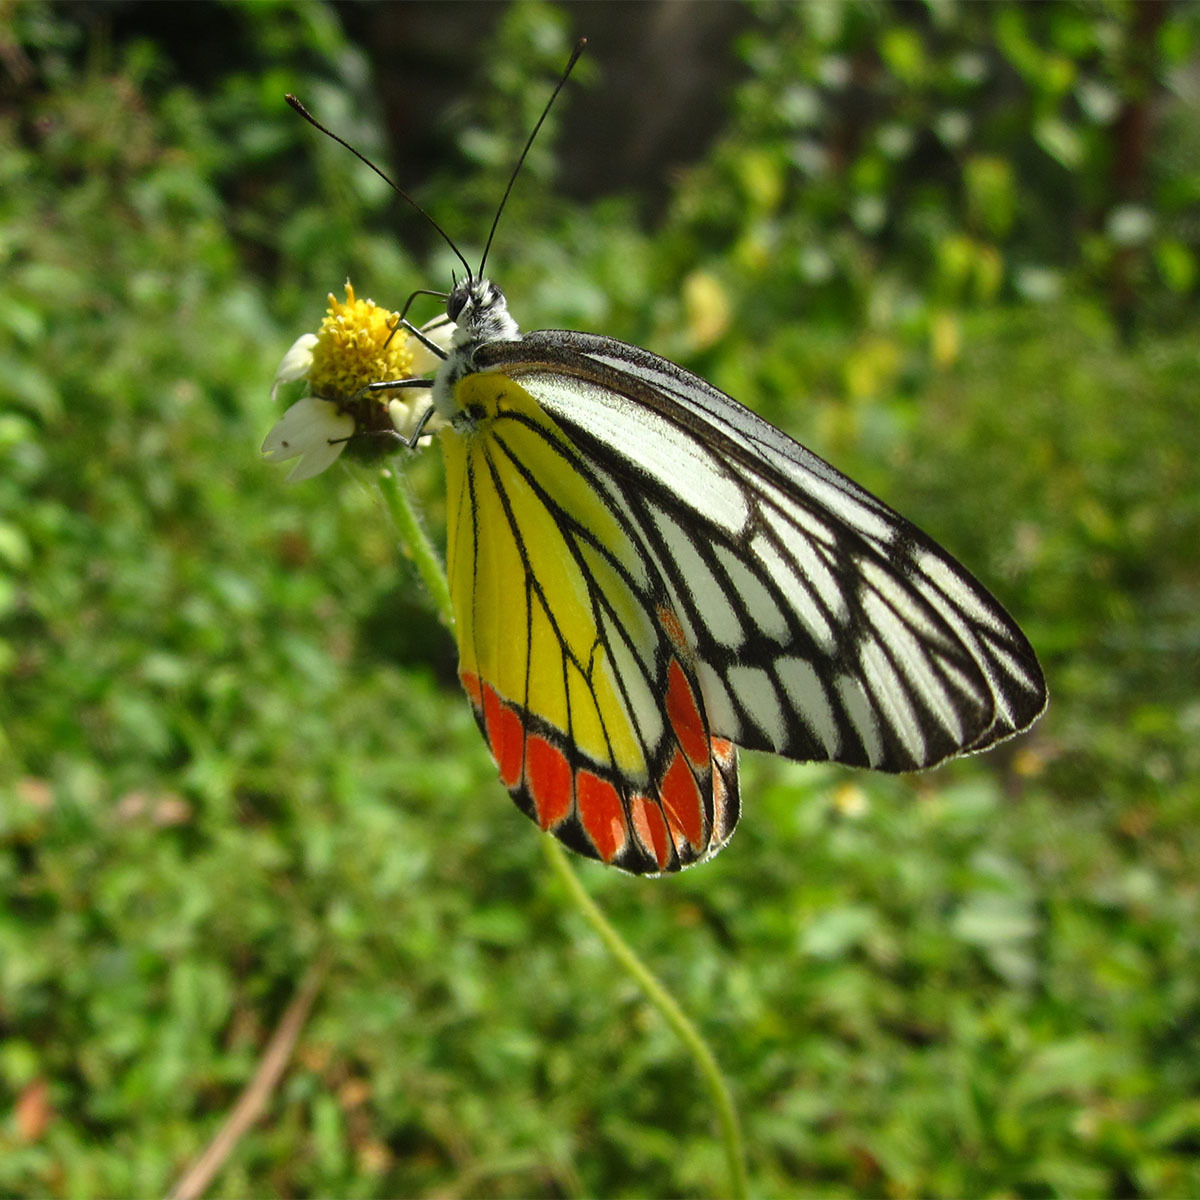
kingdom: Animalia
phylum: Arthropoda
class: Insecta
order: Lepidoptera
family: Pieridae
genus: Delias
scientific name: Delias eucharis
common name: Common jezebel
